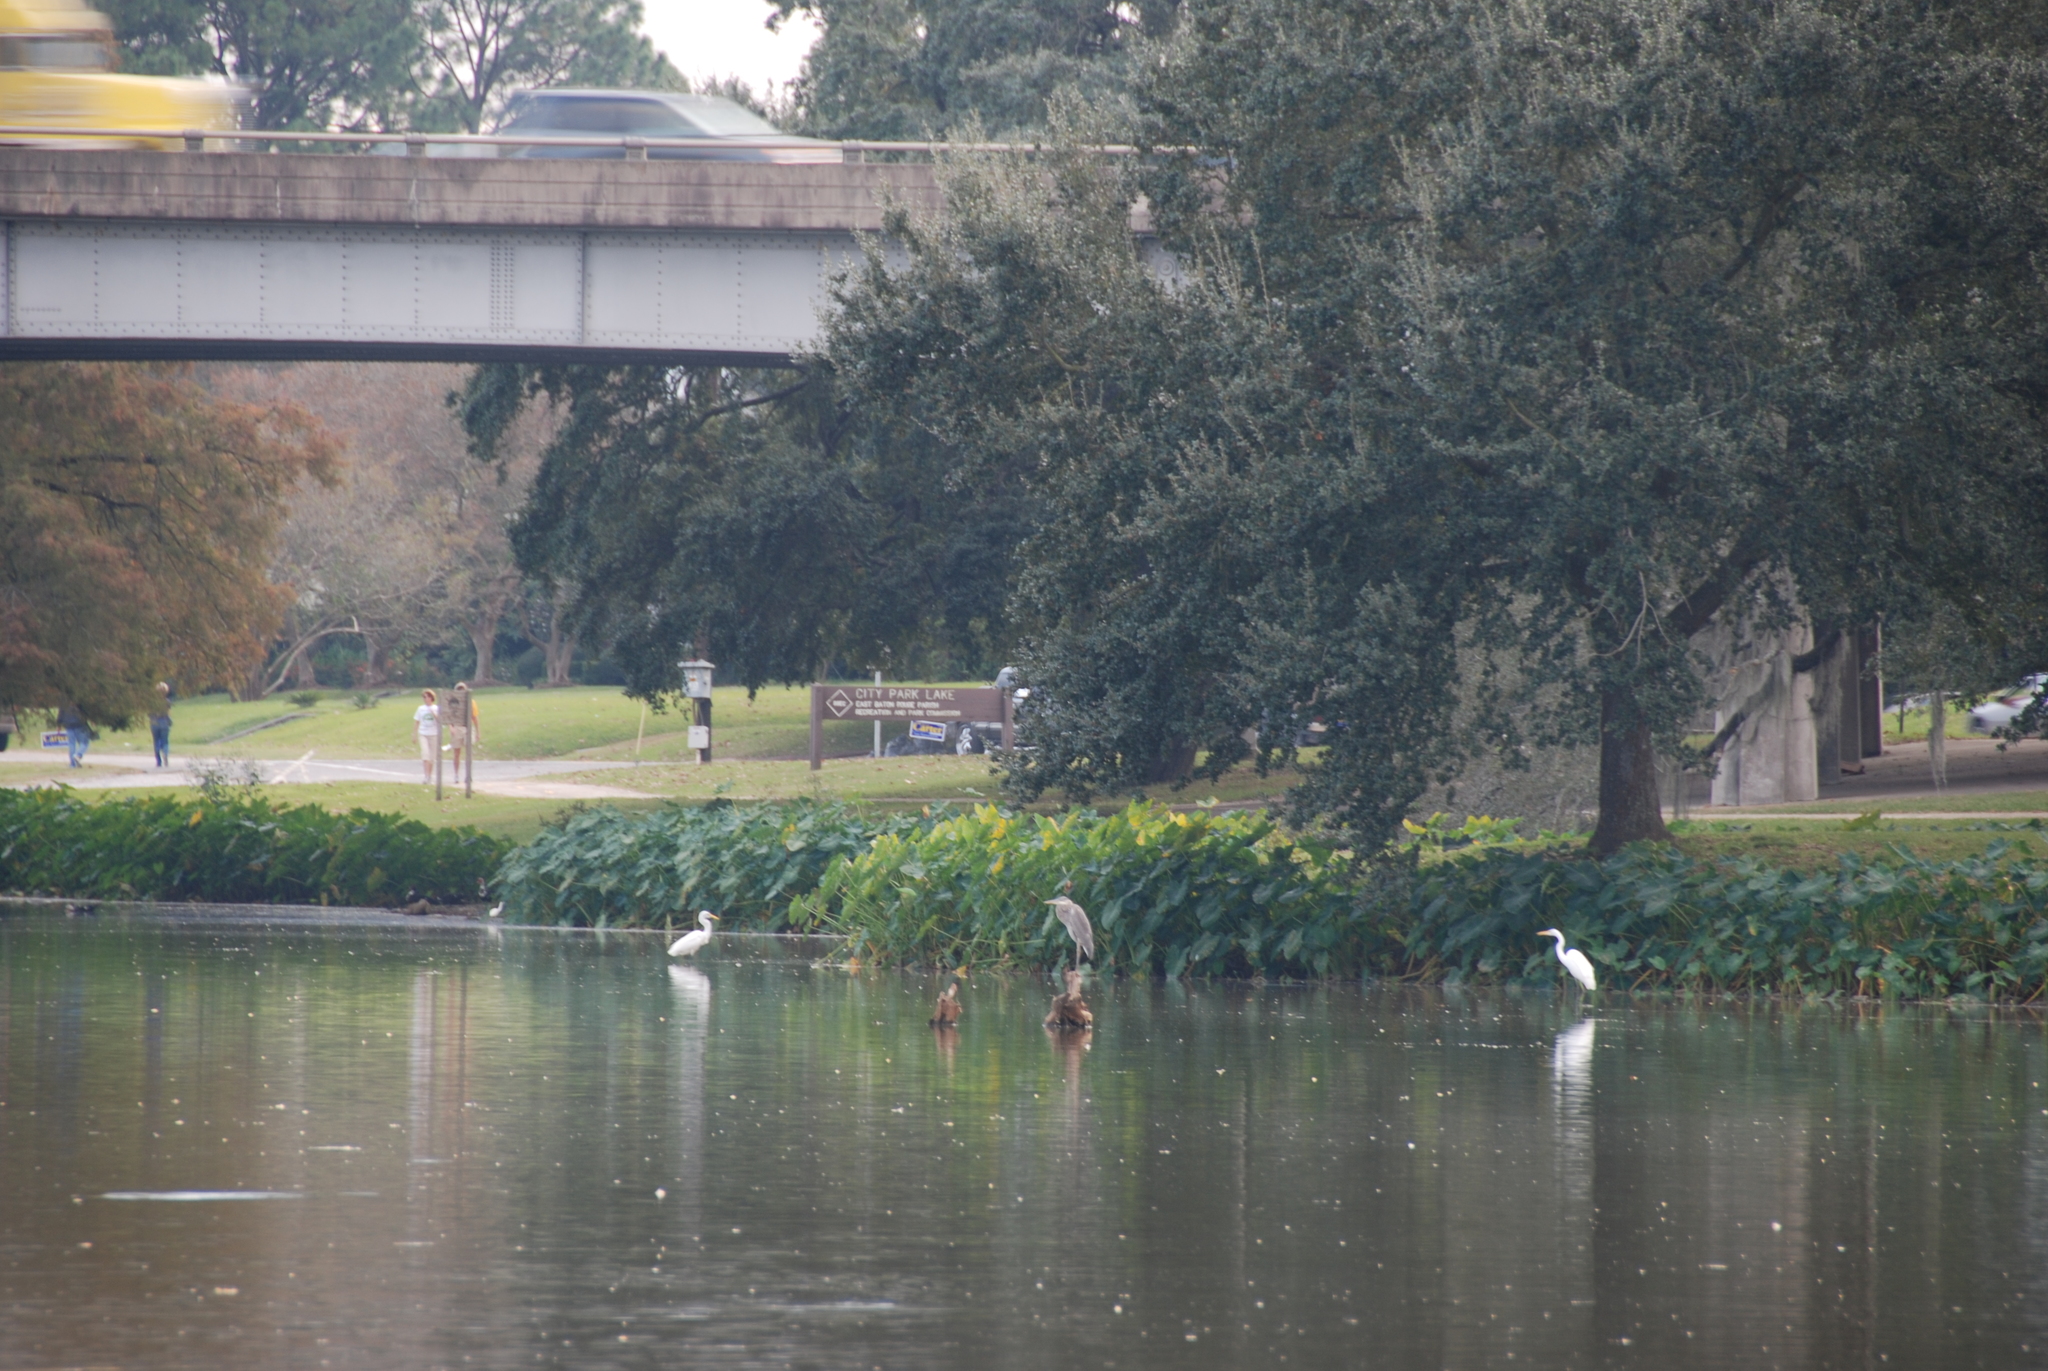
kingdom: Animalia
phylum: Chordata
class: Aves
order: Pelecaniformes
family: Ardeidae
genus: Ardea
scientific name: Ardea herodias
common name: Great blue heron
